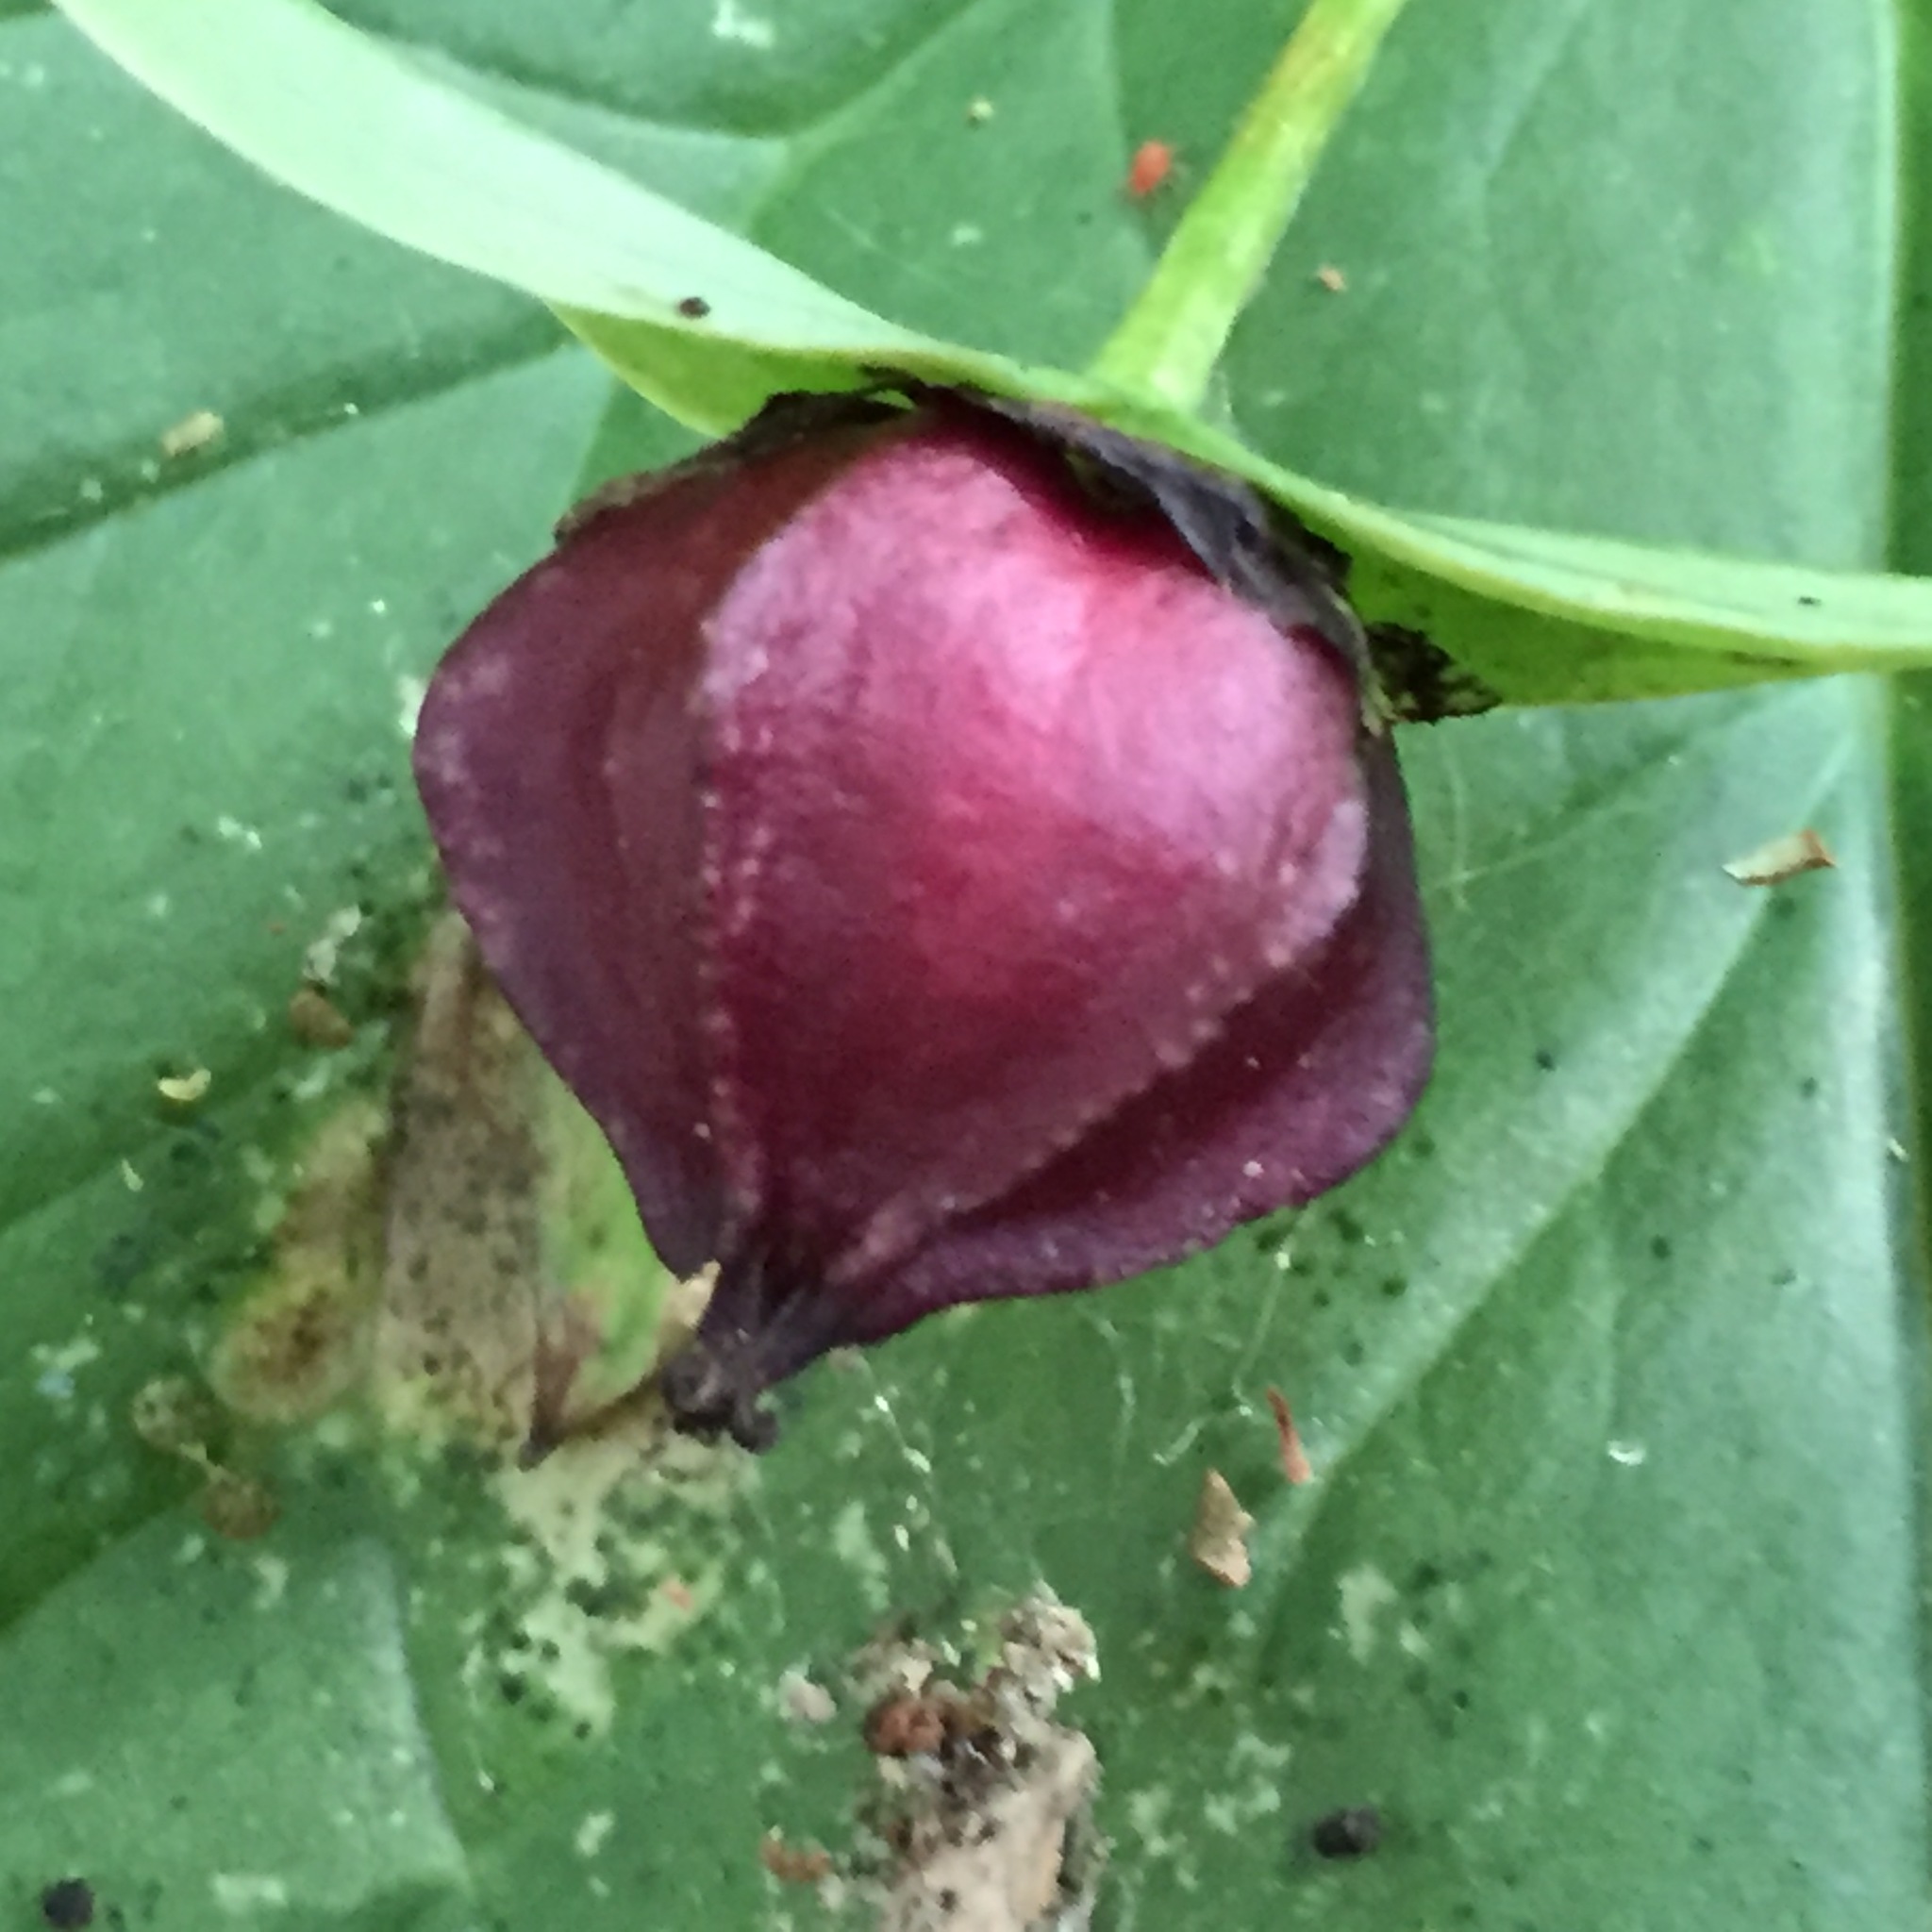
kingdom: Plantae
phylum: Tracheophyta
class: Liliopsida
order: Liliales
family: Melanthiaceae
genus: Trillium
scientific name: Trillium erectum
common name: Purple trillium
